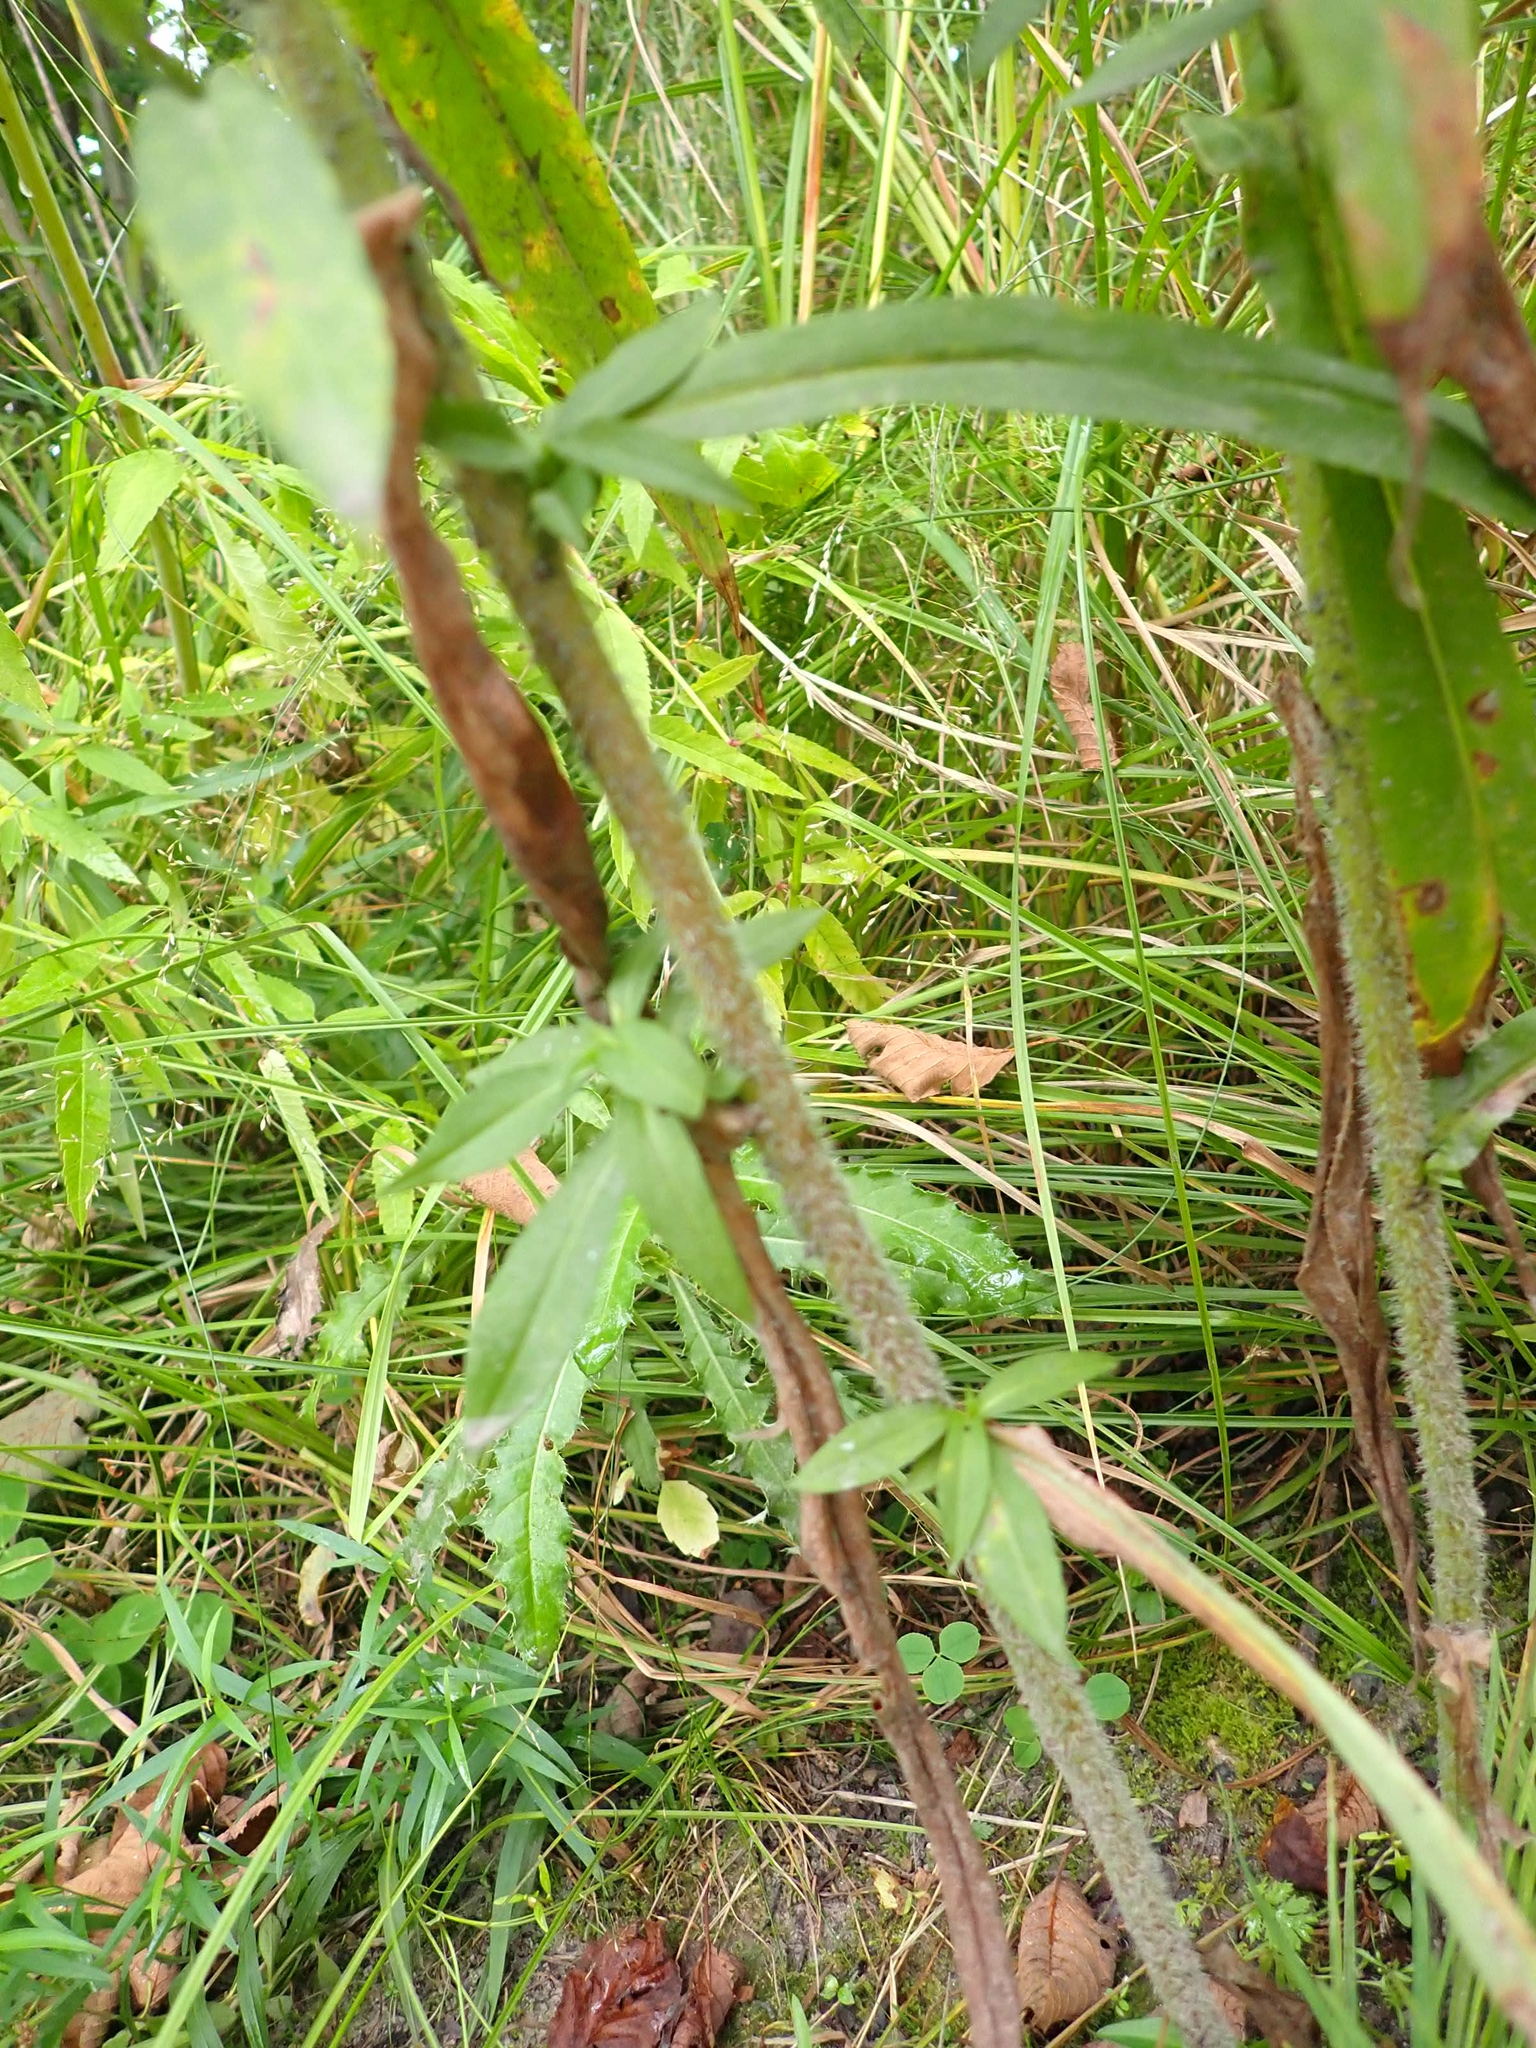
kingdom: Plantae
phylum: Tracheophyta
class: Magnoliopsida
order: Asterales
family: Asteraceae
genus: Symphyotrichum
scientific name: Symphyotrichum puniceum
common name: Bog aster
